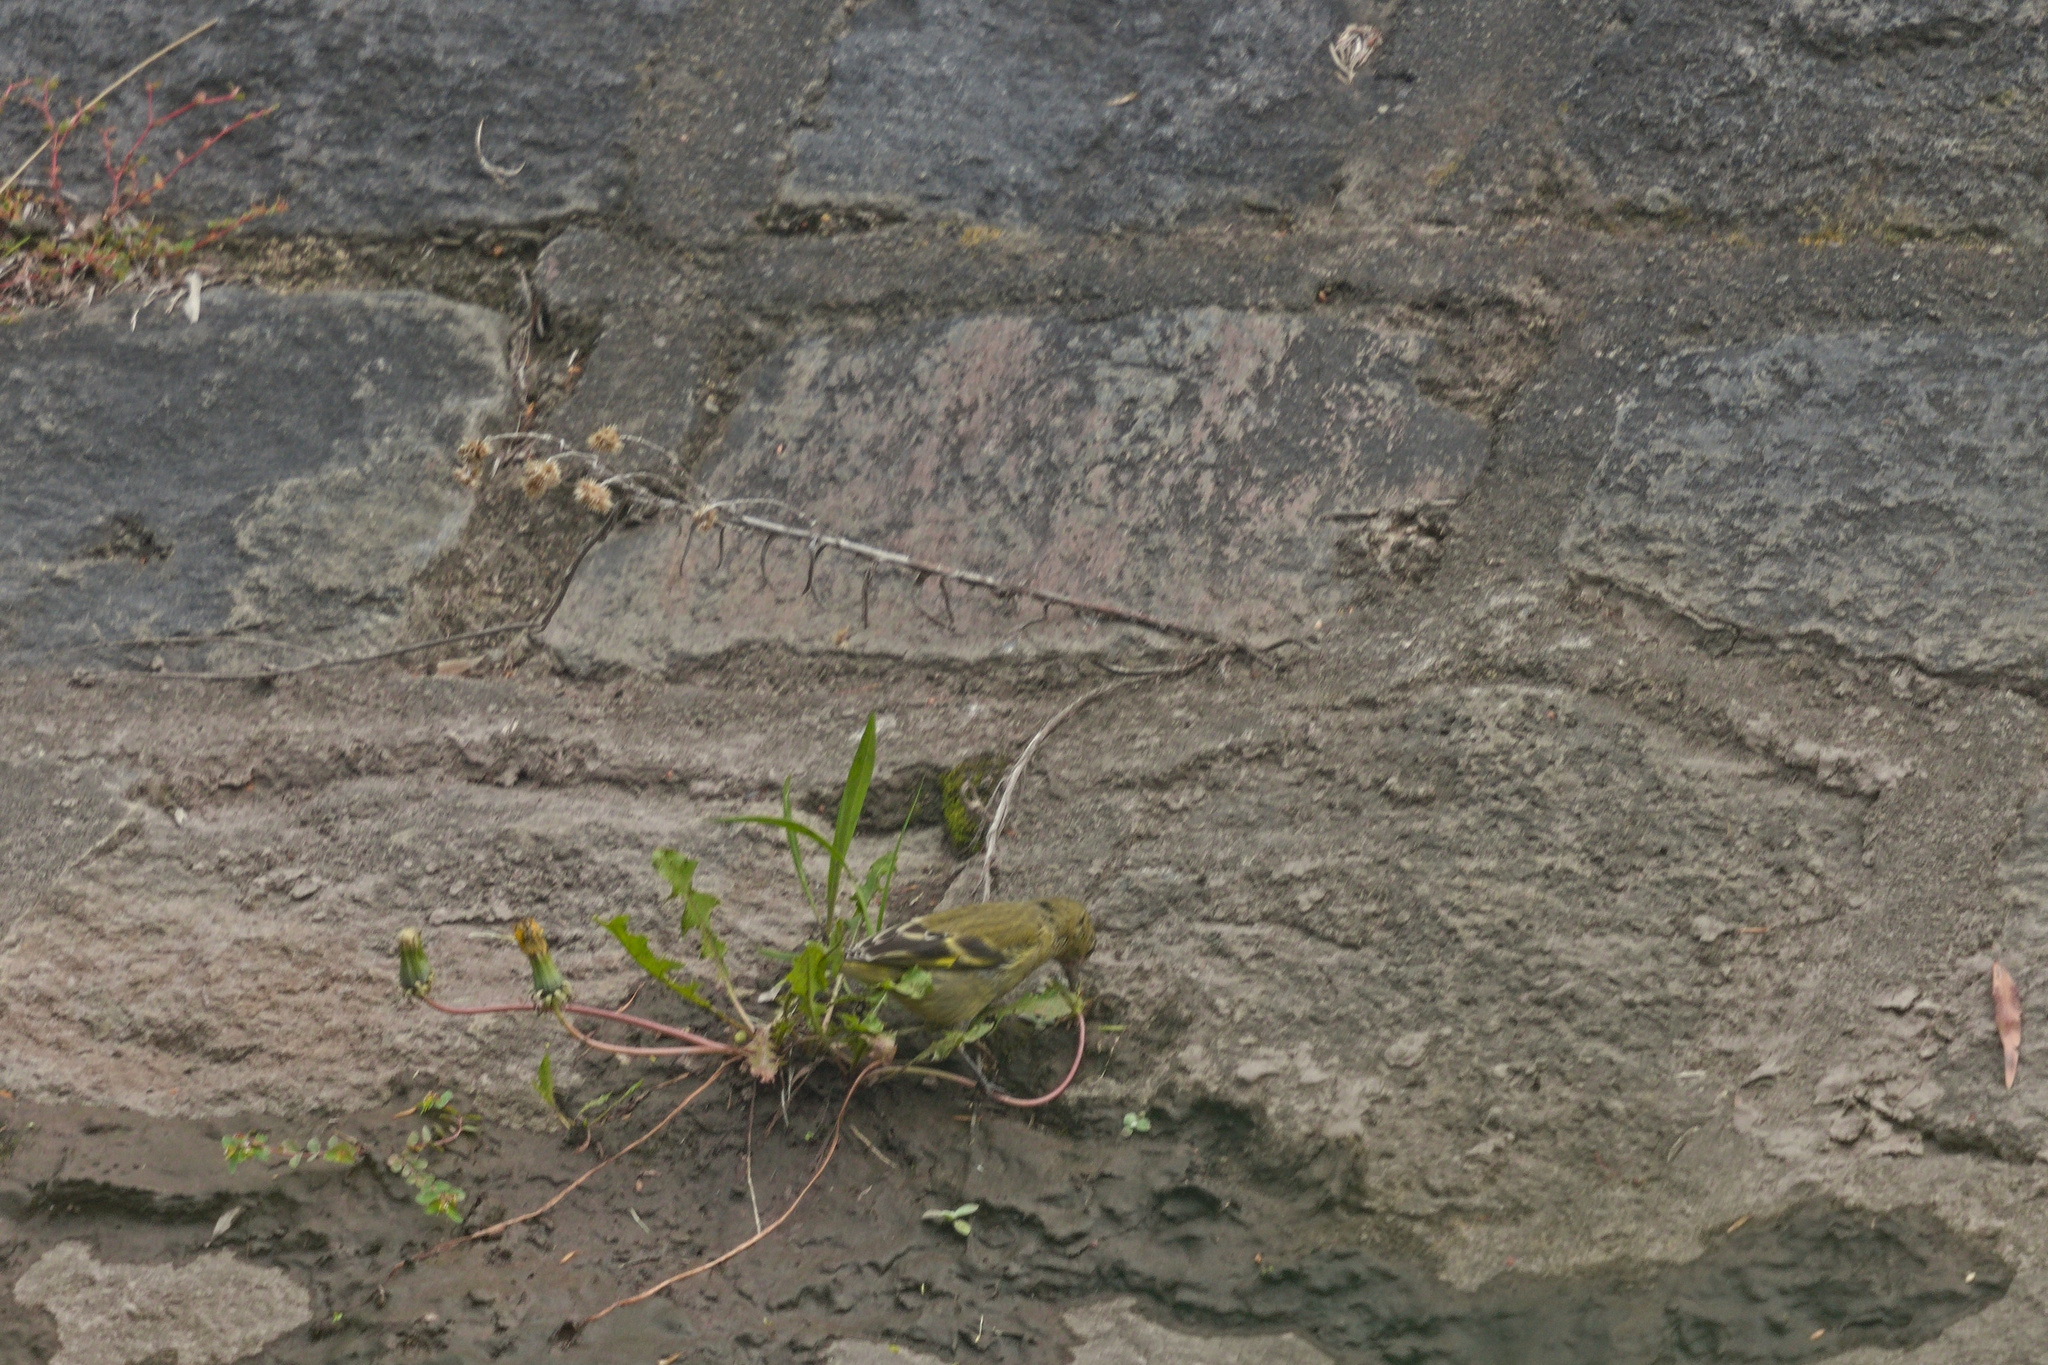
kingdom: Animalia
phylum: Chordata
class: Aves
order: Passeriformes
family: Fringillidae
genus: Spinus
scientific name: Spinus magellanicus
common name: Hooded siskin
